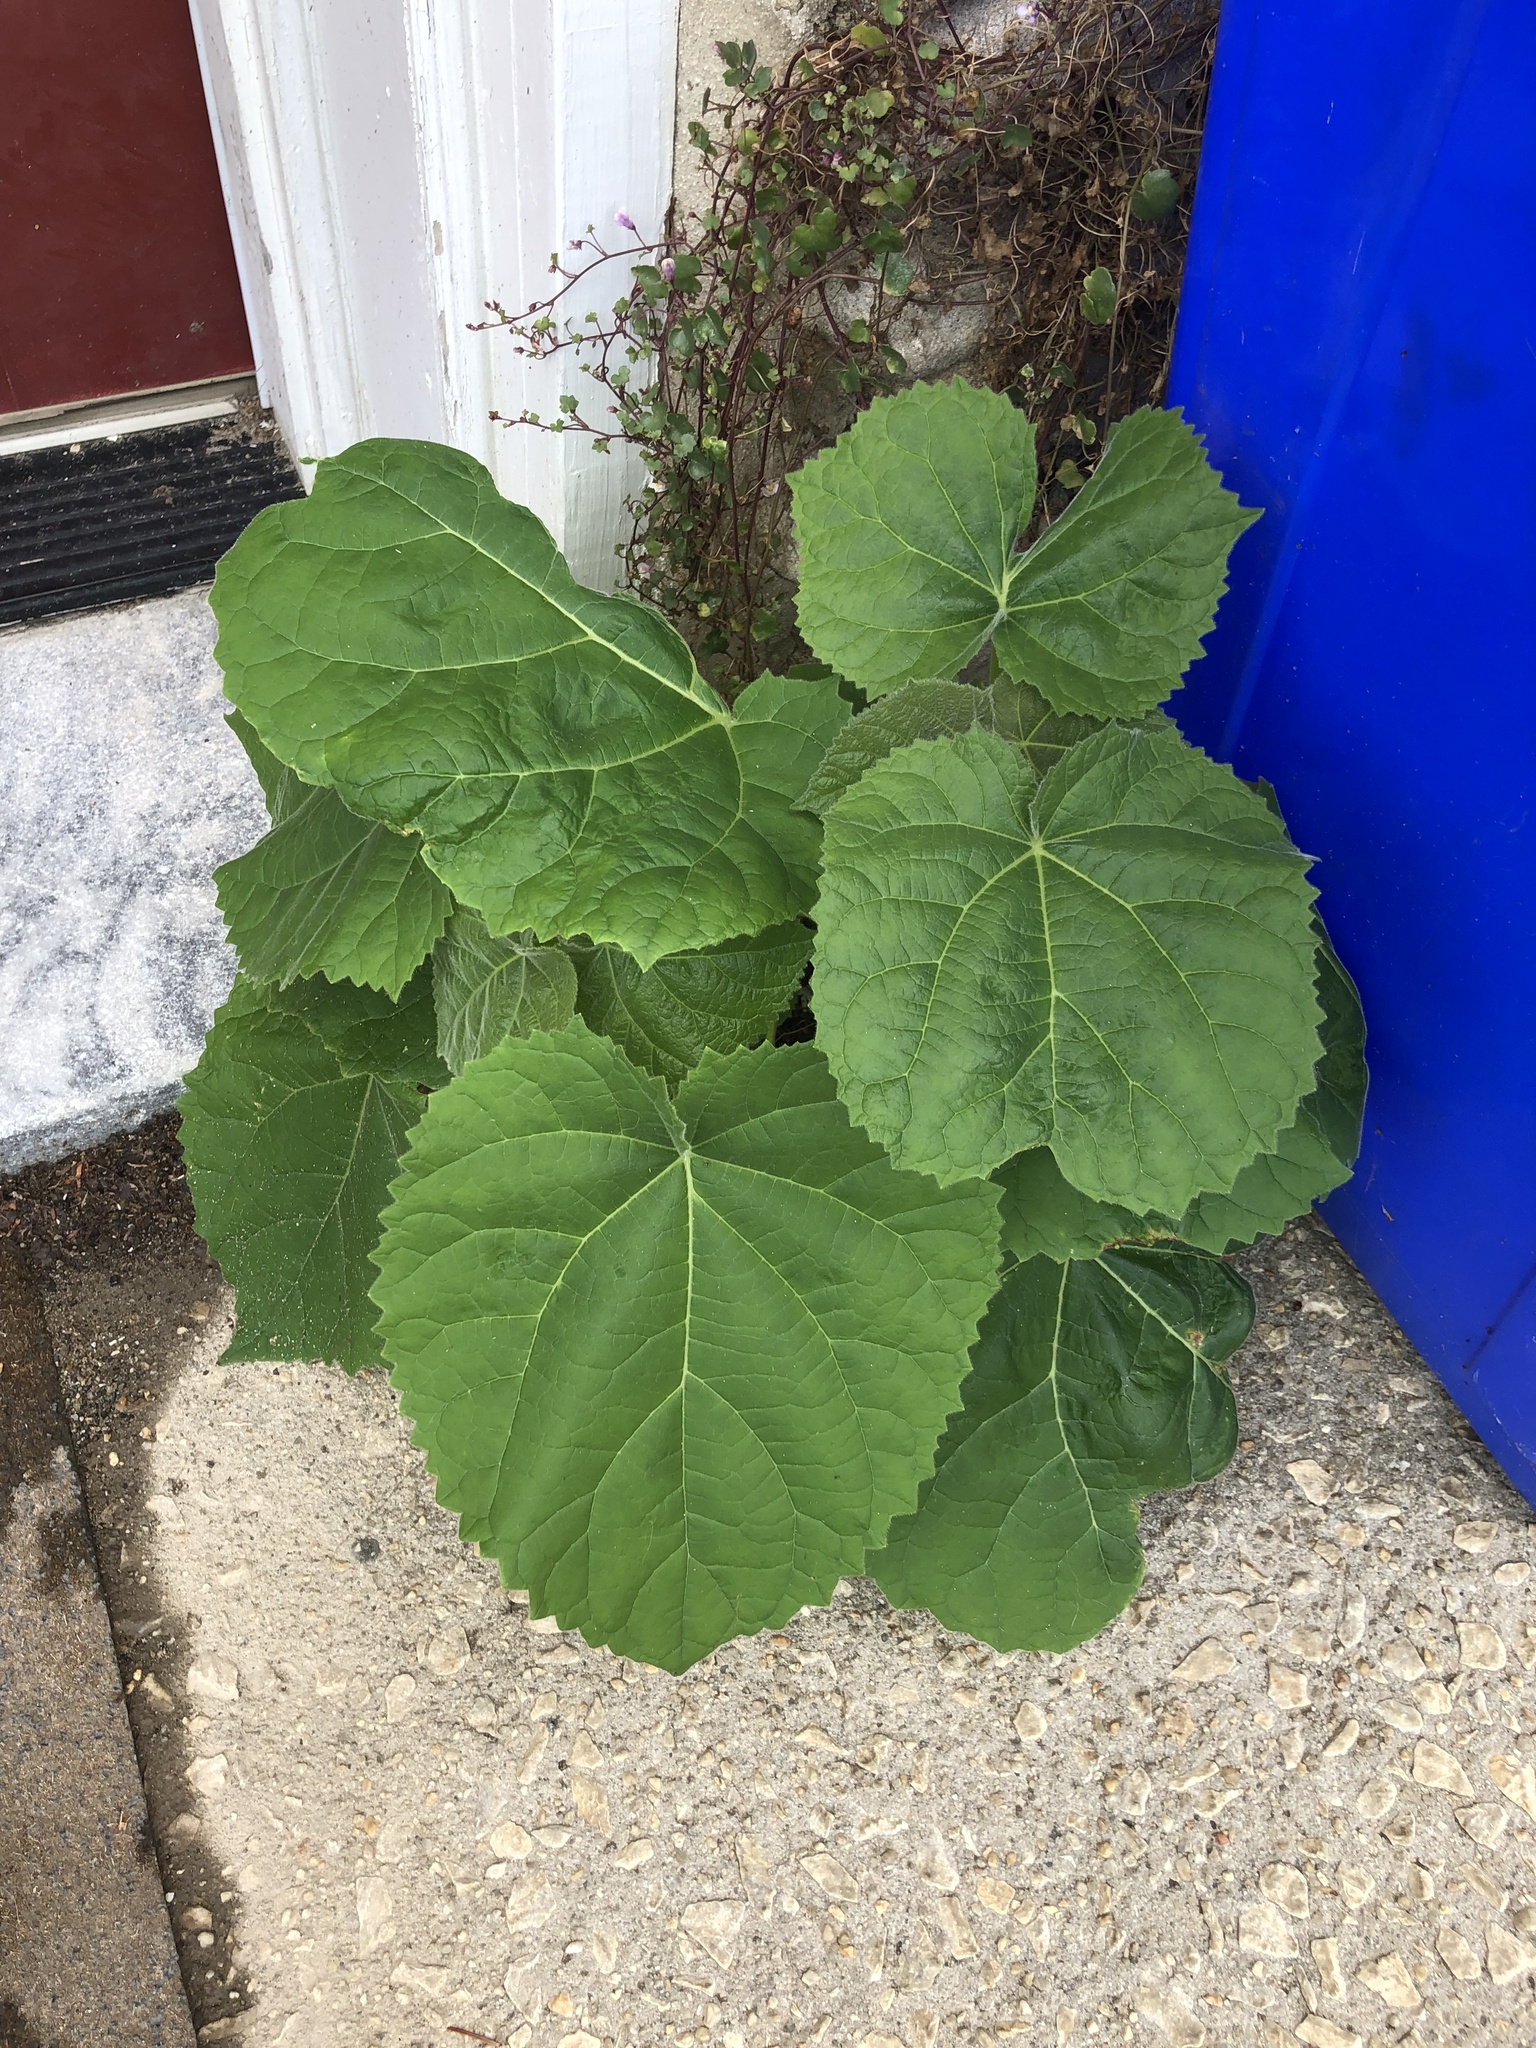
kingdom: Plantae
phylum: Tracheophyta
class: Magnoliopsida
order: Lamiales
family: Paulowniaceae
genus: Paulownia
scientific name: Paulownia tomentosa
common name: Foxglove-tree
